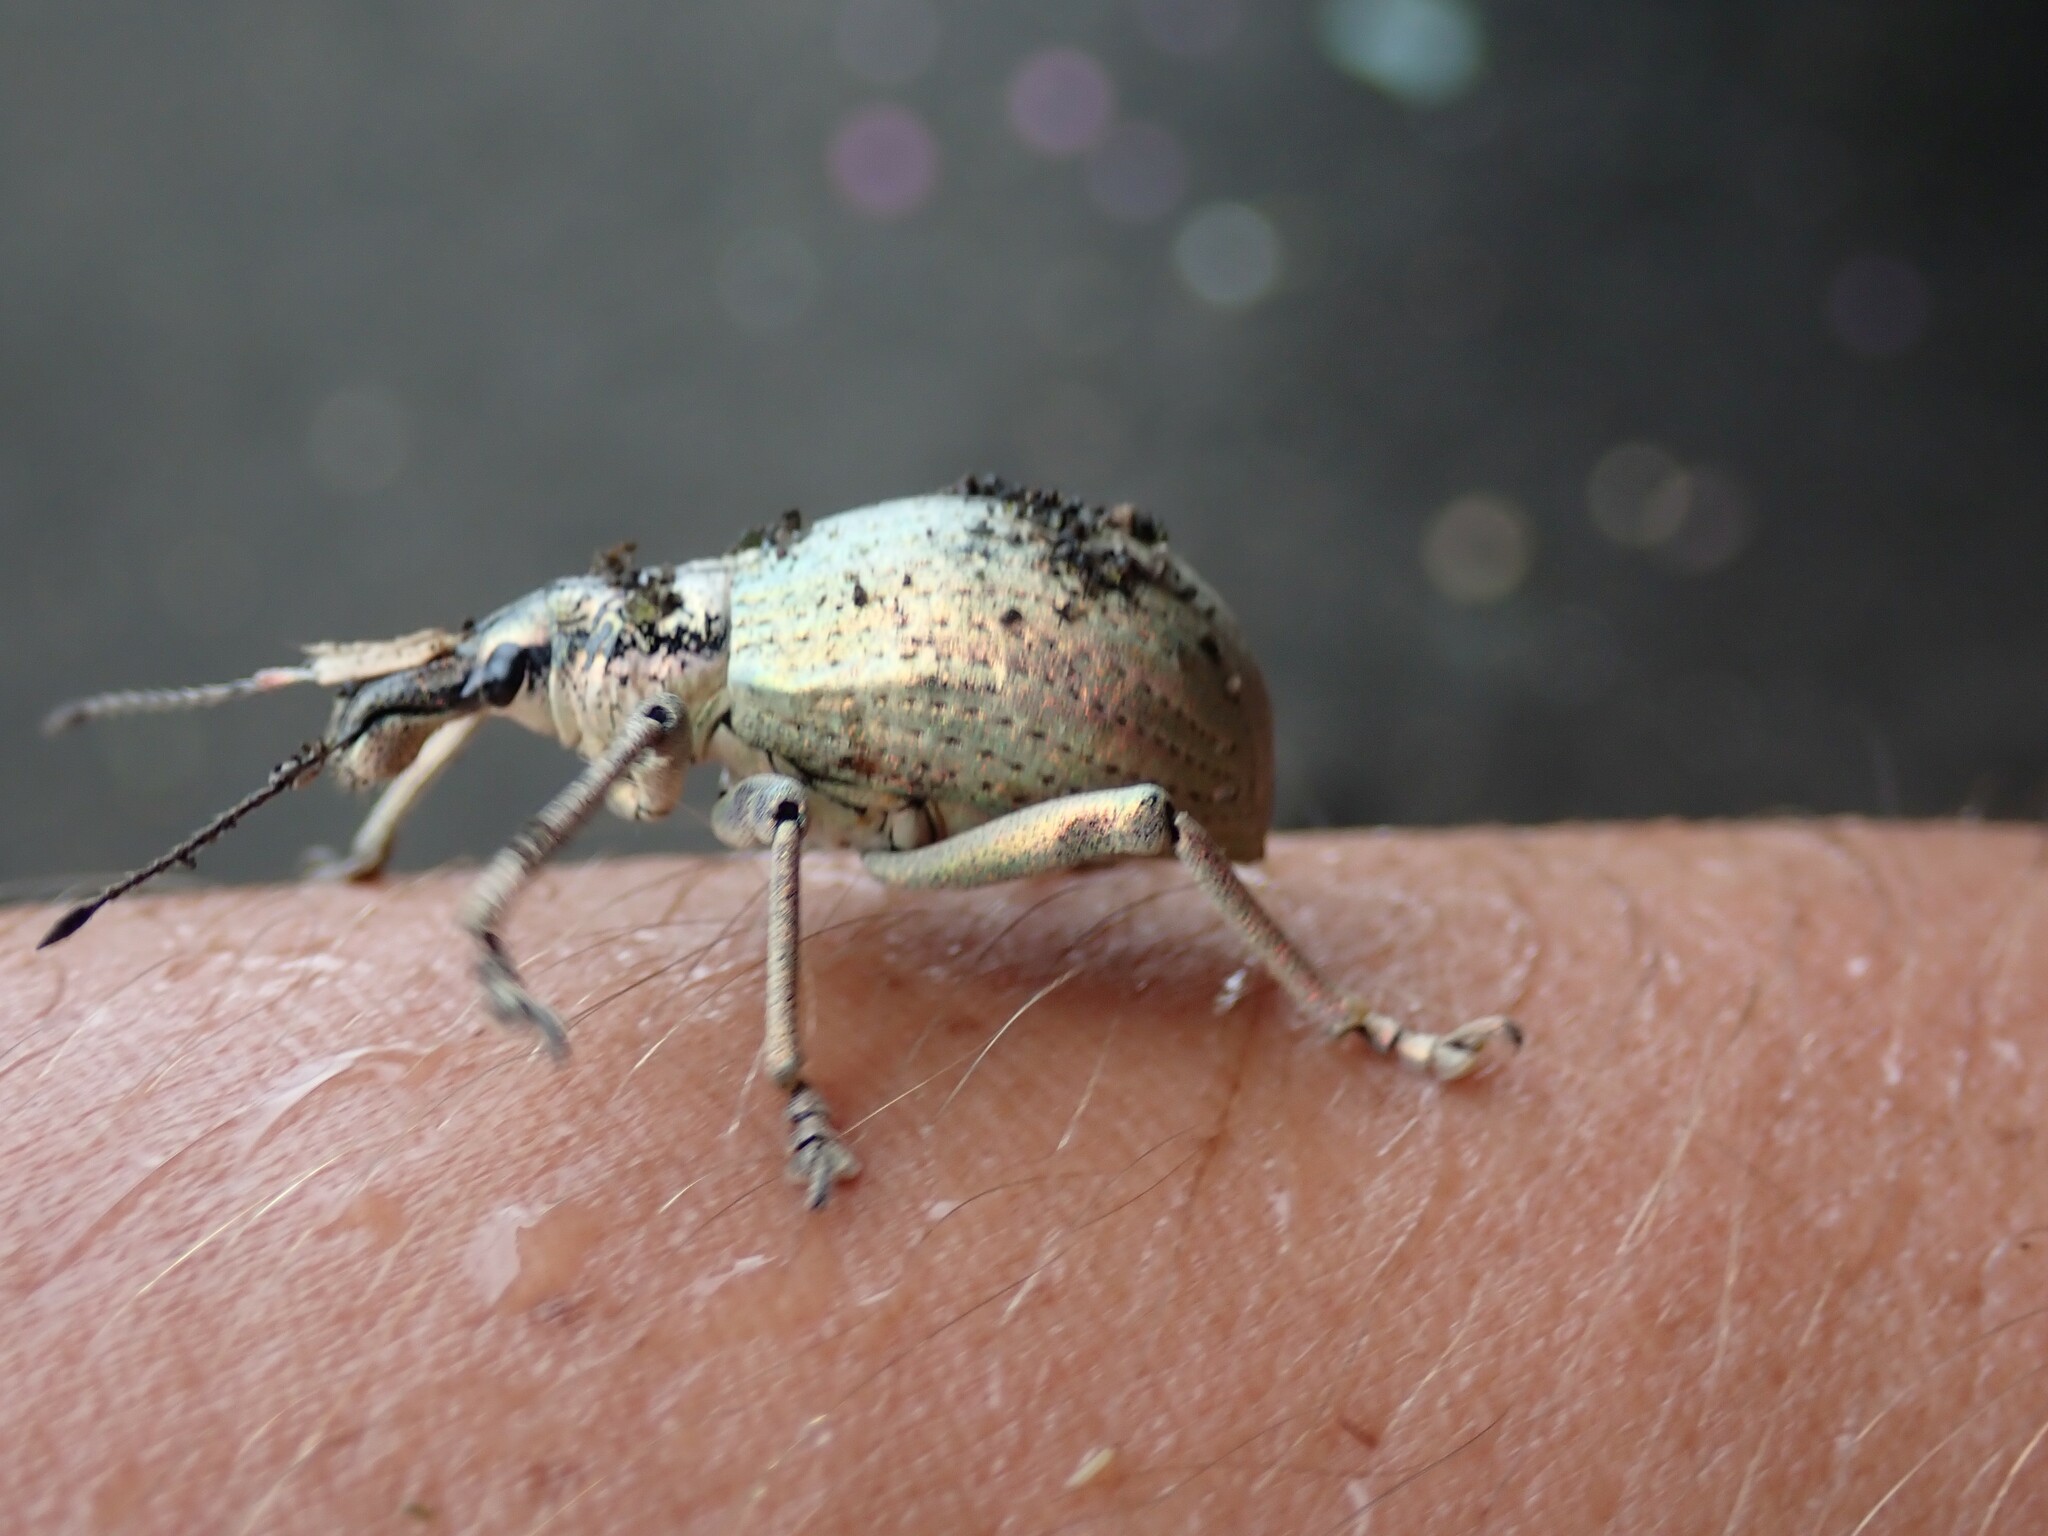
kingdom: Animalia
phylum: Arthropoda
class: Insecta
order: Coleoptera
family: Curculionidae
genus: Rhinoscapha
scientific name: Rhinoscapha meridiana
